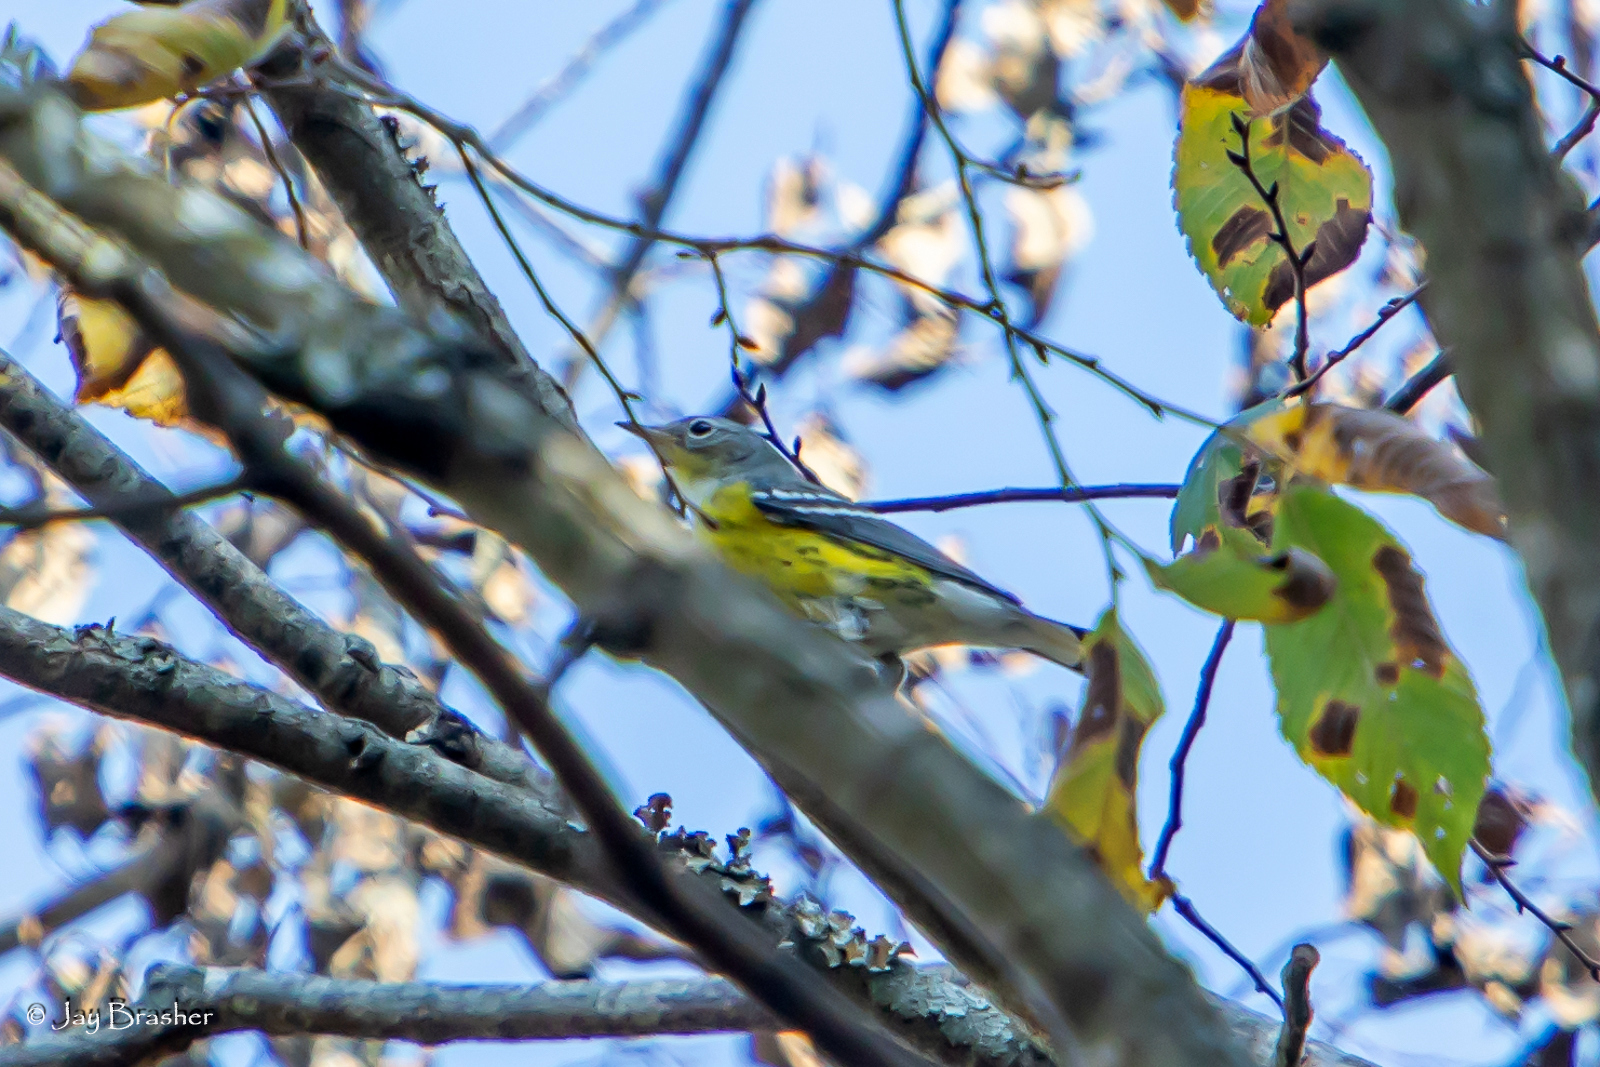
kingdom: Animalia
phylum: Chordata
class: Aves
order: Passeriformes
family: Parulidae
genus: Setophaga
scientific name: Setophaga magnolia
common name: Magnolia warbler
